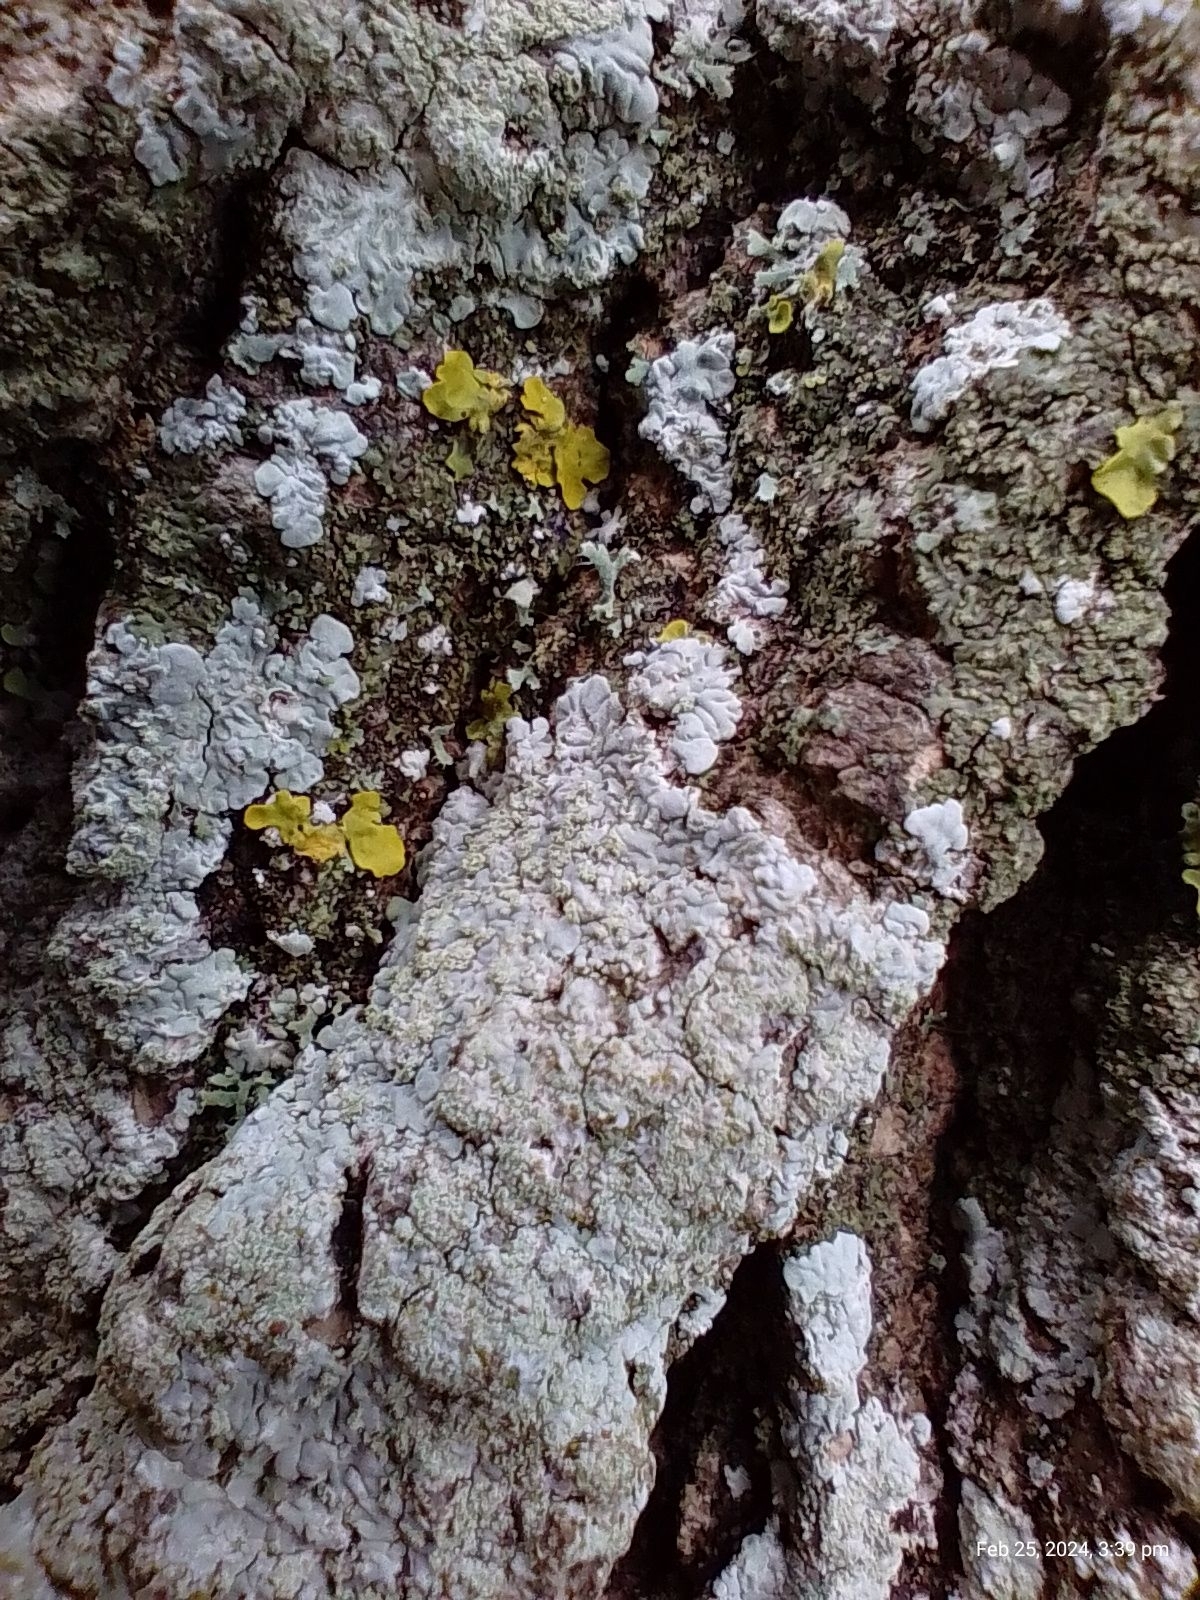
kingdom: Fungi
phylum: Ascomycota
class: Lecanoromycetes
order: Caliciales
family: Caliciaceae
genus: Diploicia
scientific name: Diploicia canescens
